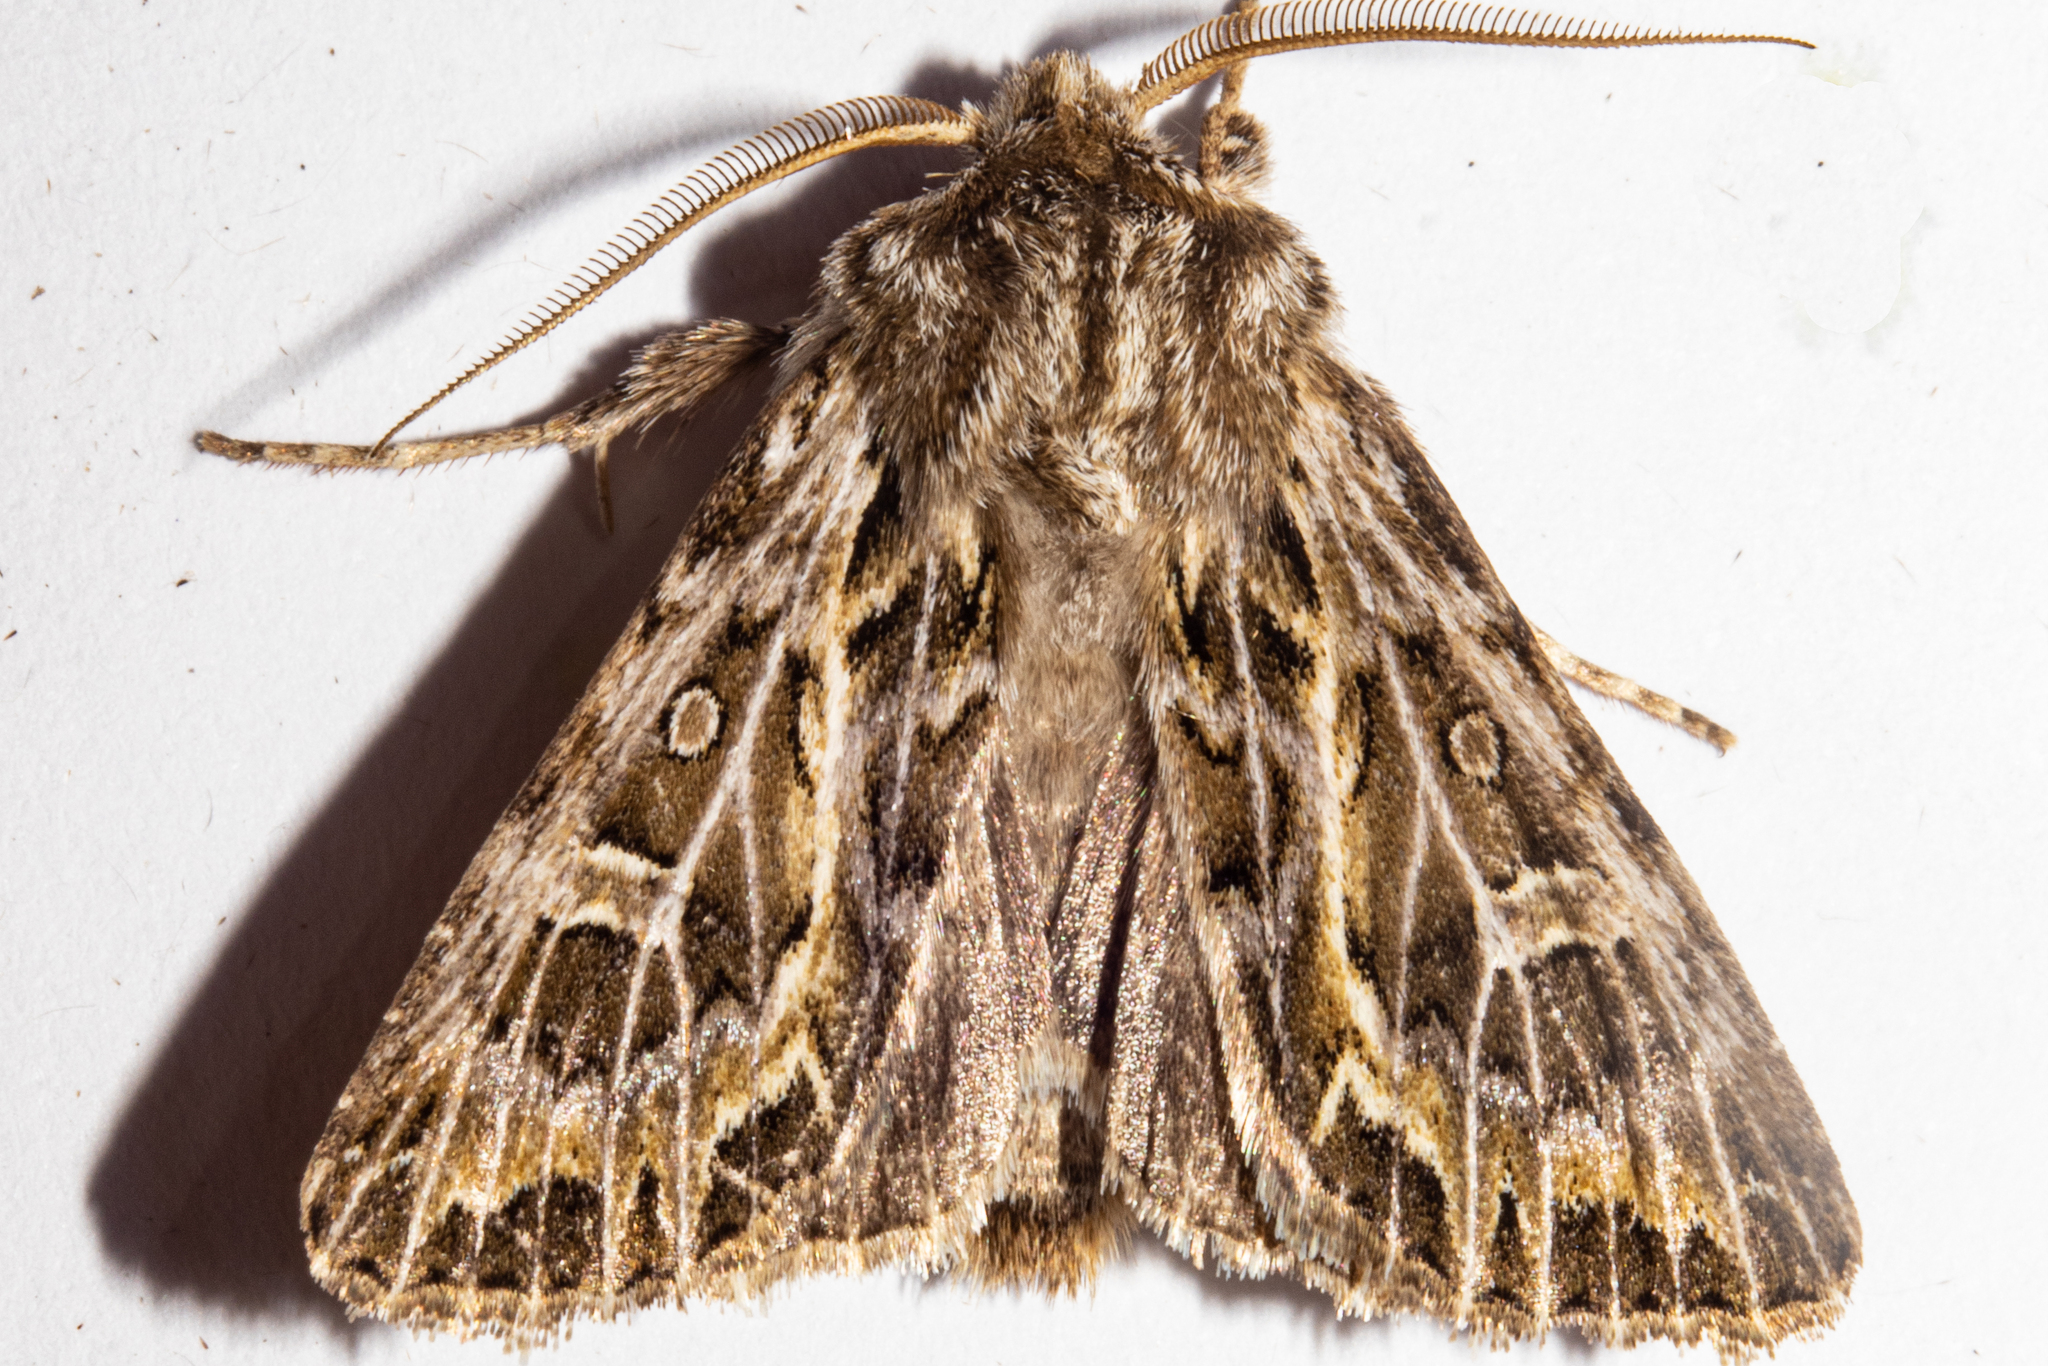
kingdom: Animalia
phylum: Arthropoda
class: Insecta
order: Lepidoptera
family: Noctuidae
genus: Ichneutica
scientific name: Ichneutica
